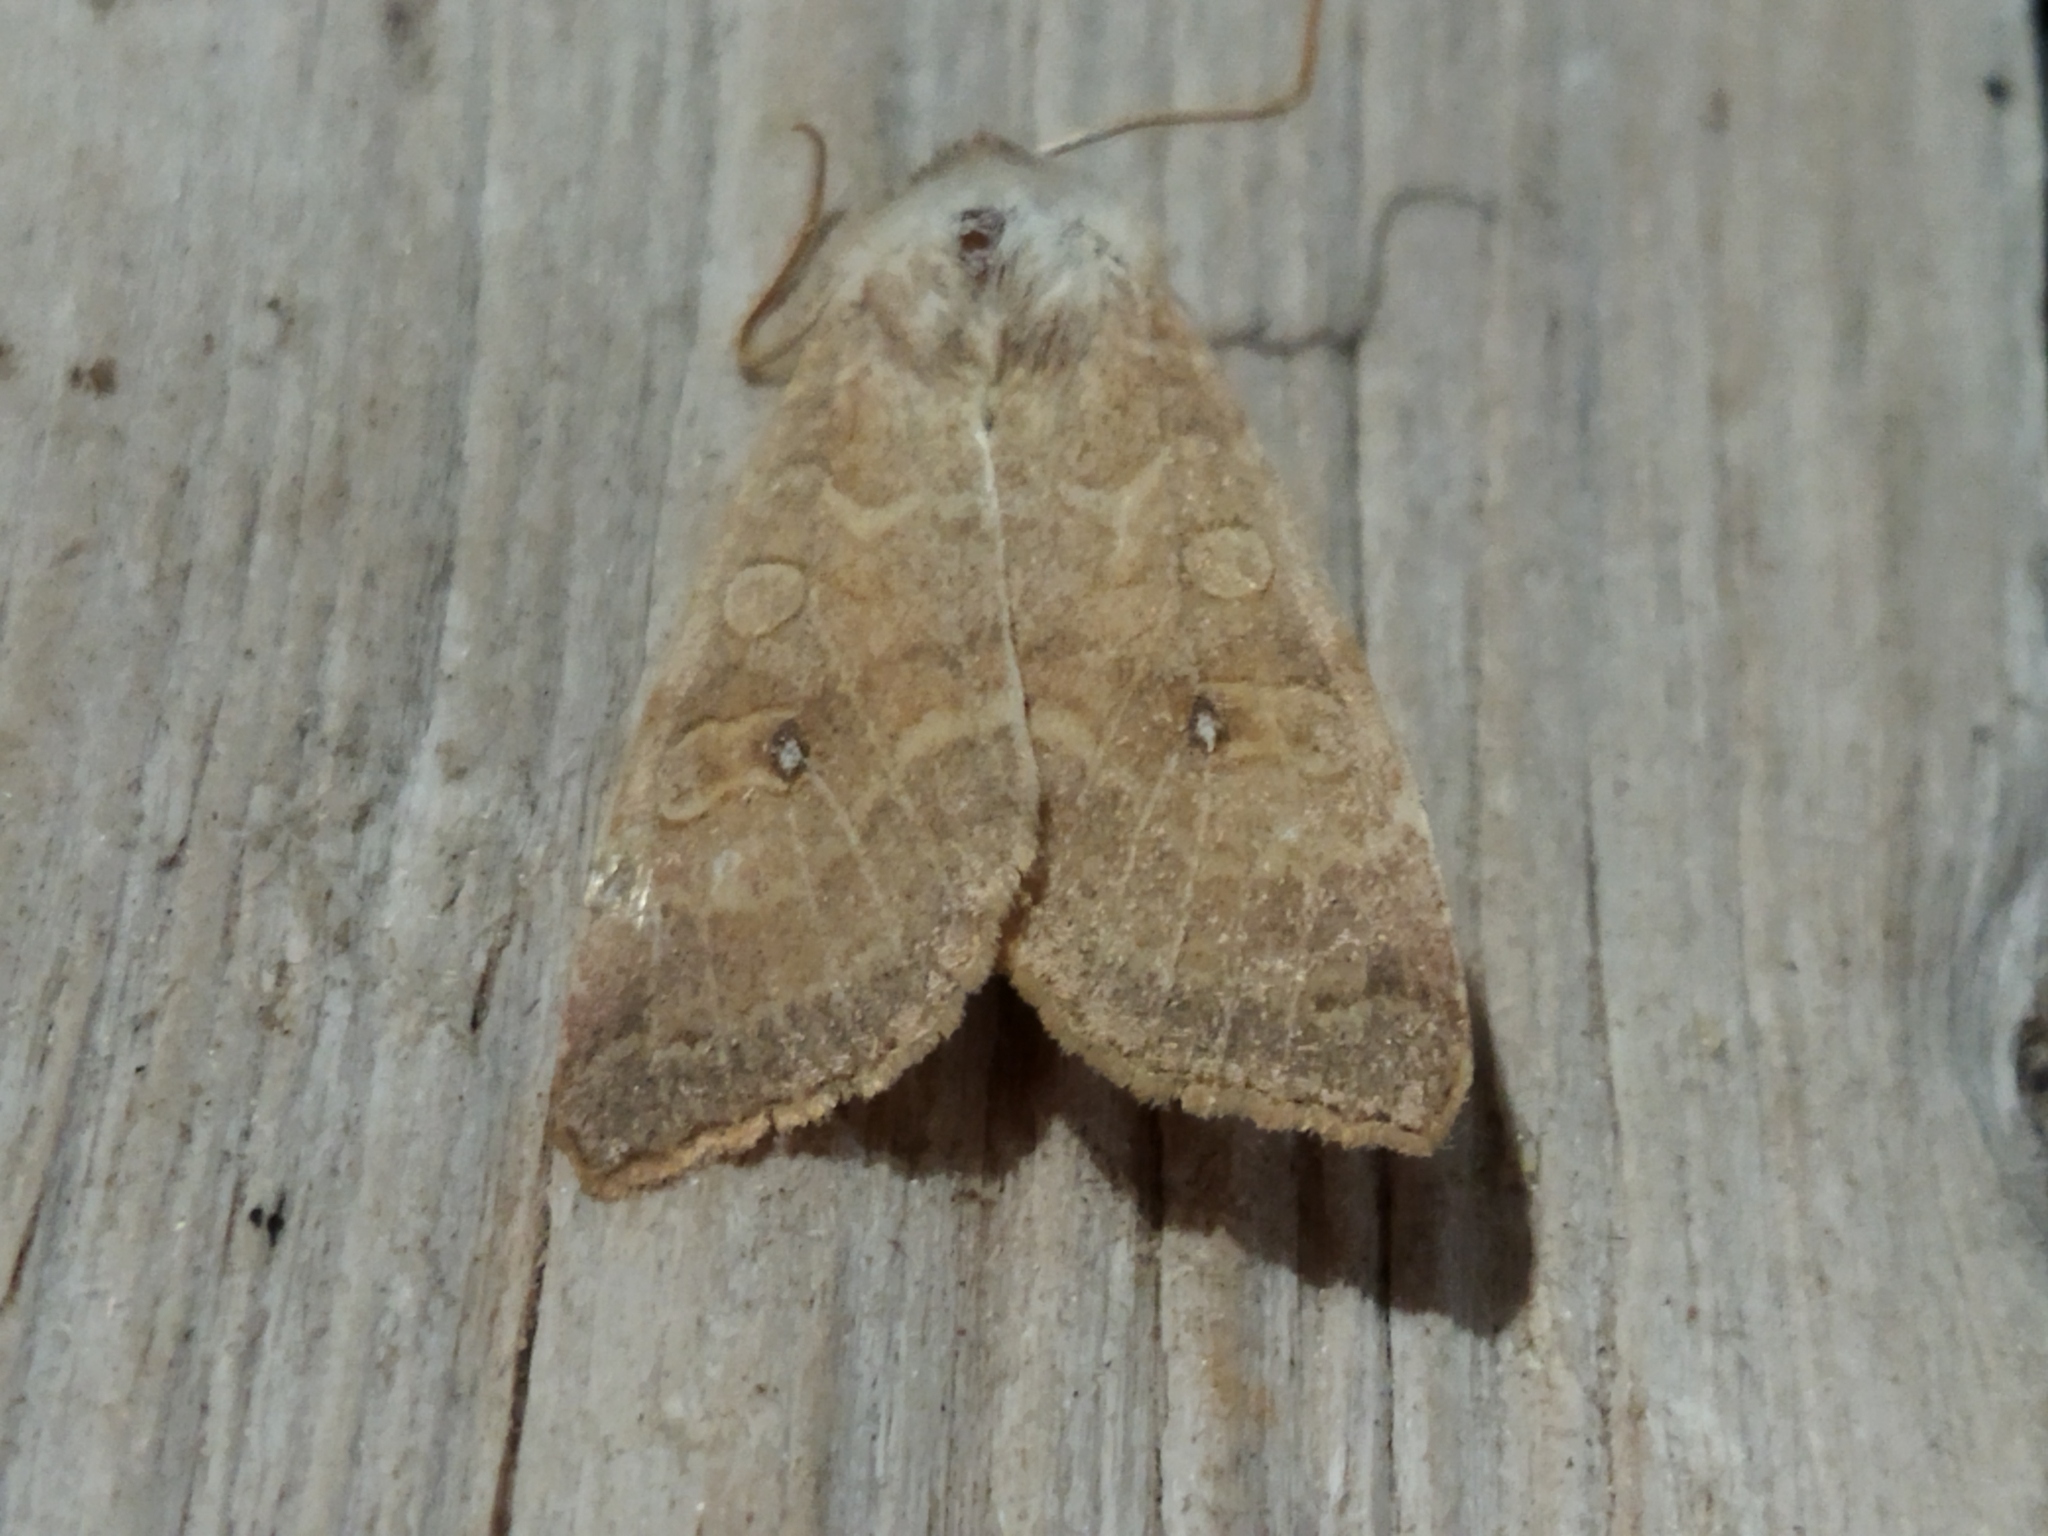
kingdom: Animalia
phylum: Arthropoda
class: Insecta
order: Lepidoptera
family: Noctuidae
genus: Xanthia
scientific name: Xanthia ocellaris
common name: Pale-lemon sallow
